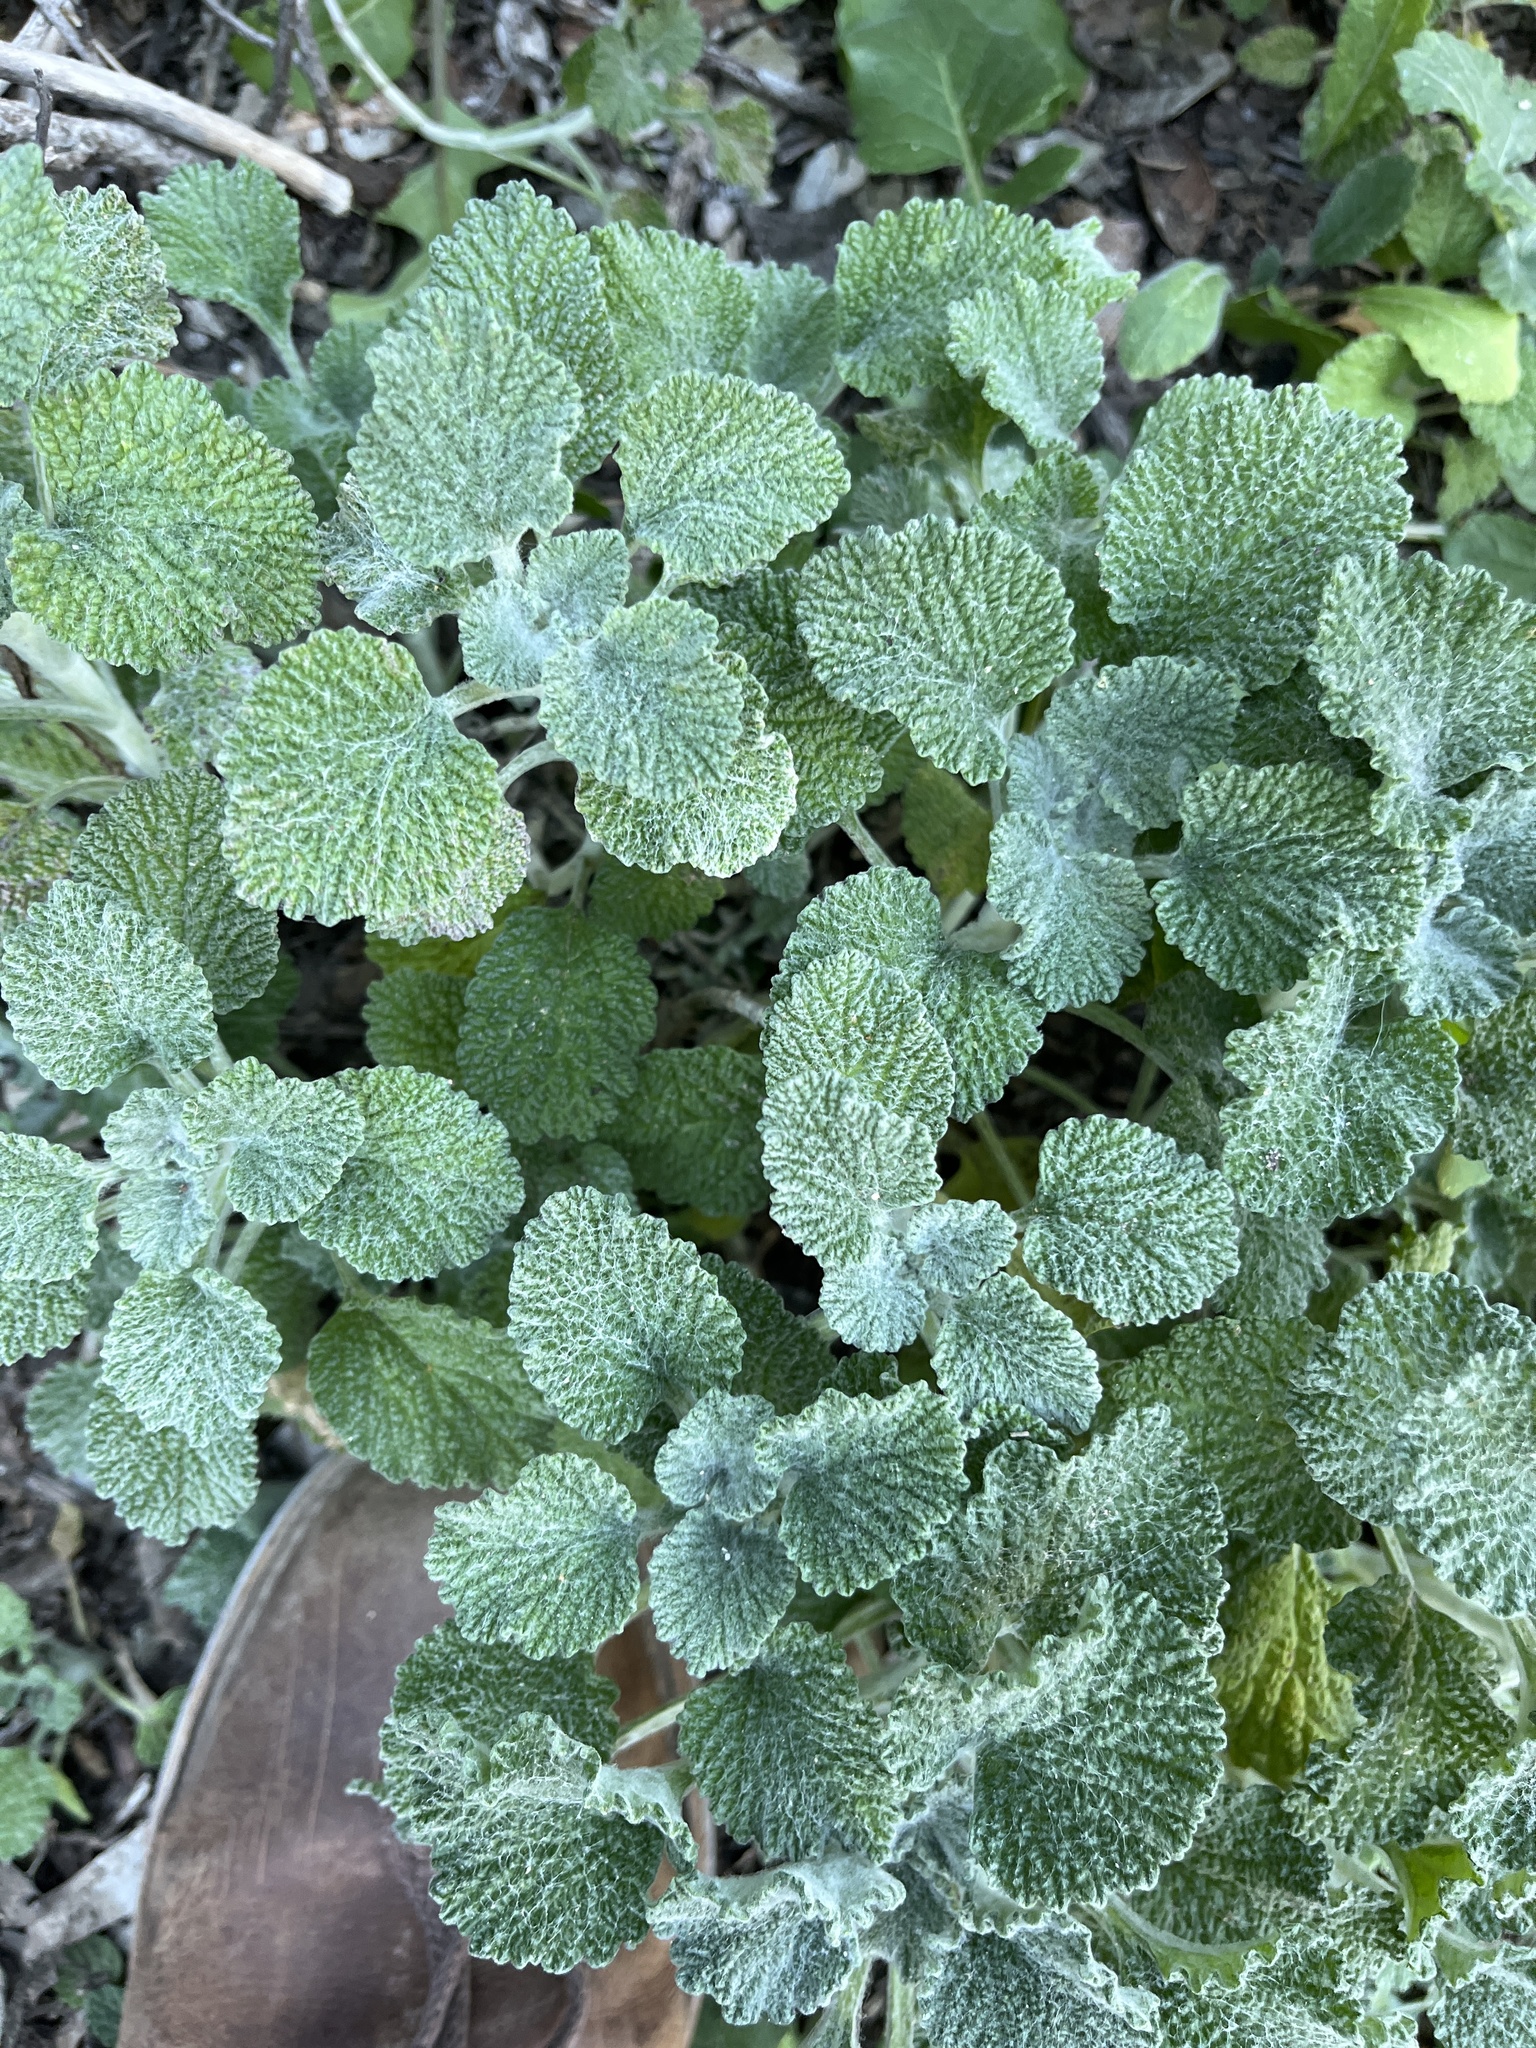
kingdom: Plantae
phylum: Tracheophyta
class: Magnoliopsida
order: Lamiales
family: Lamiaceae
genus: Marrubium
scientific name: Marrubium vulgare
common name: Horehound
